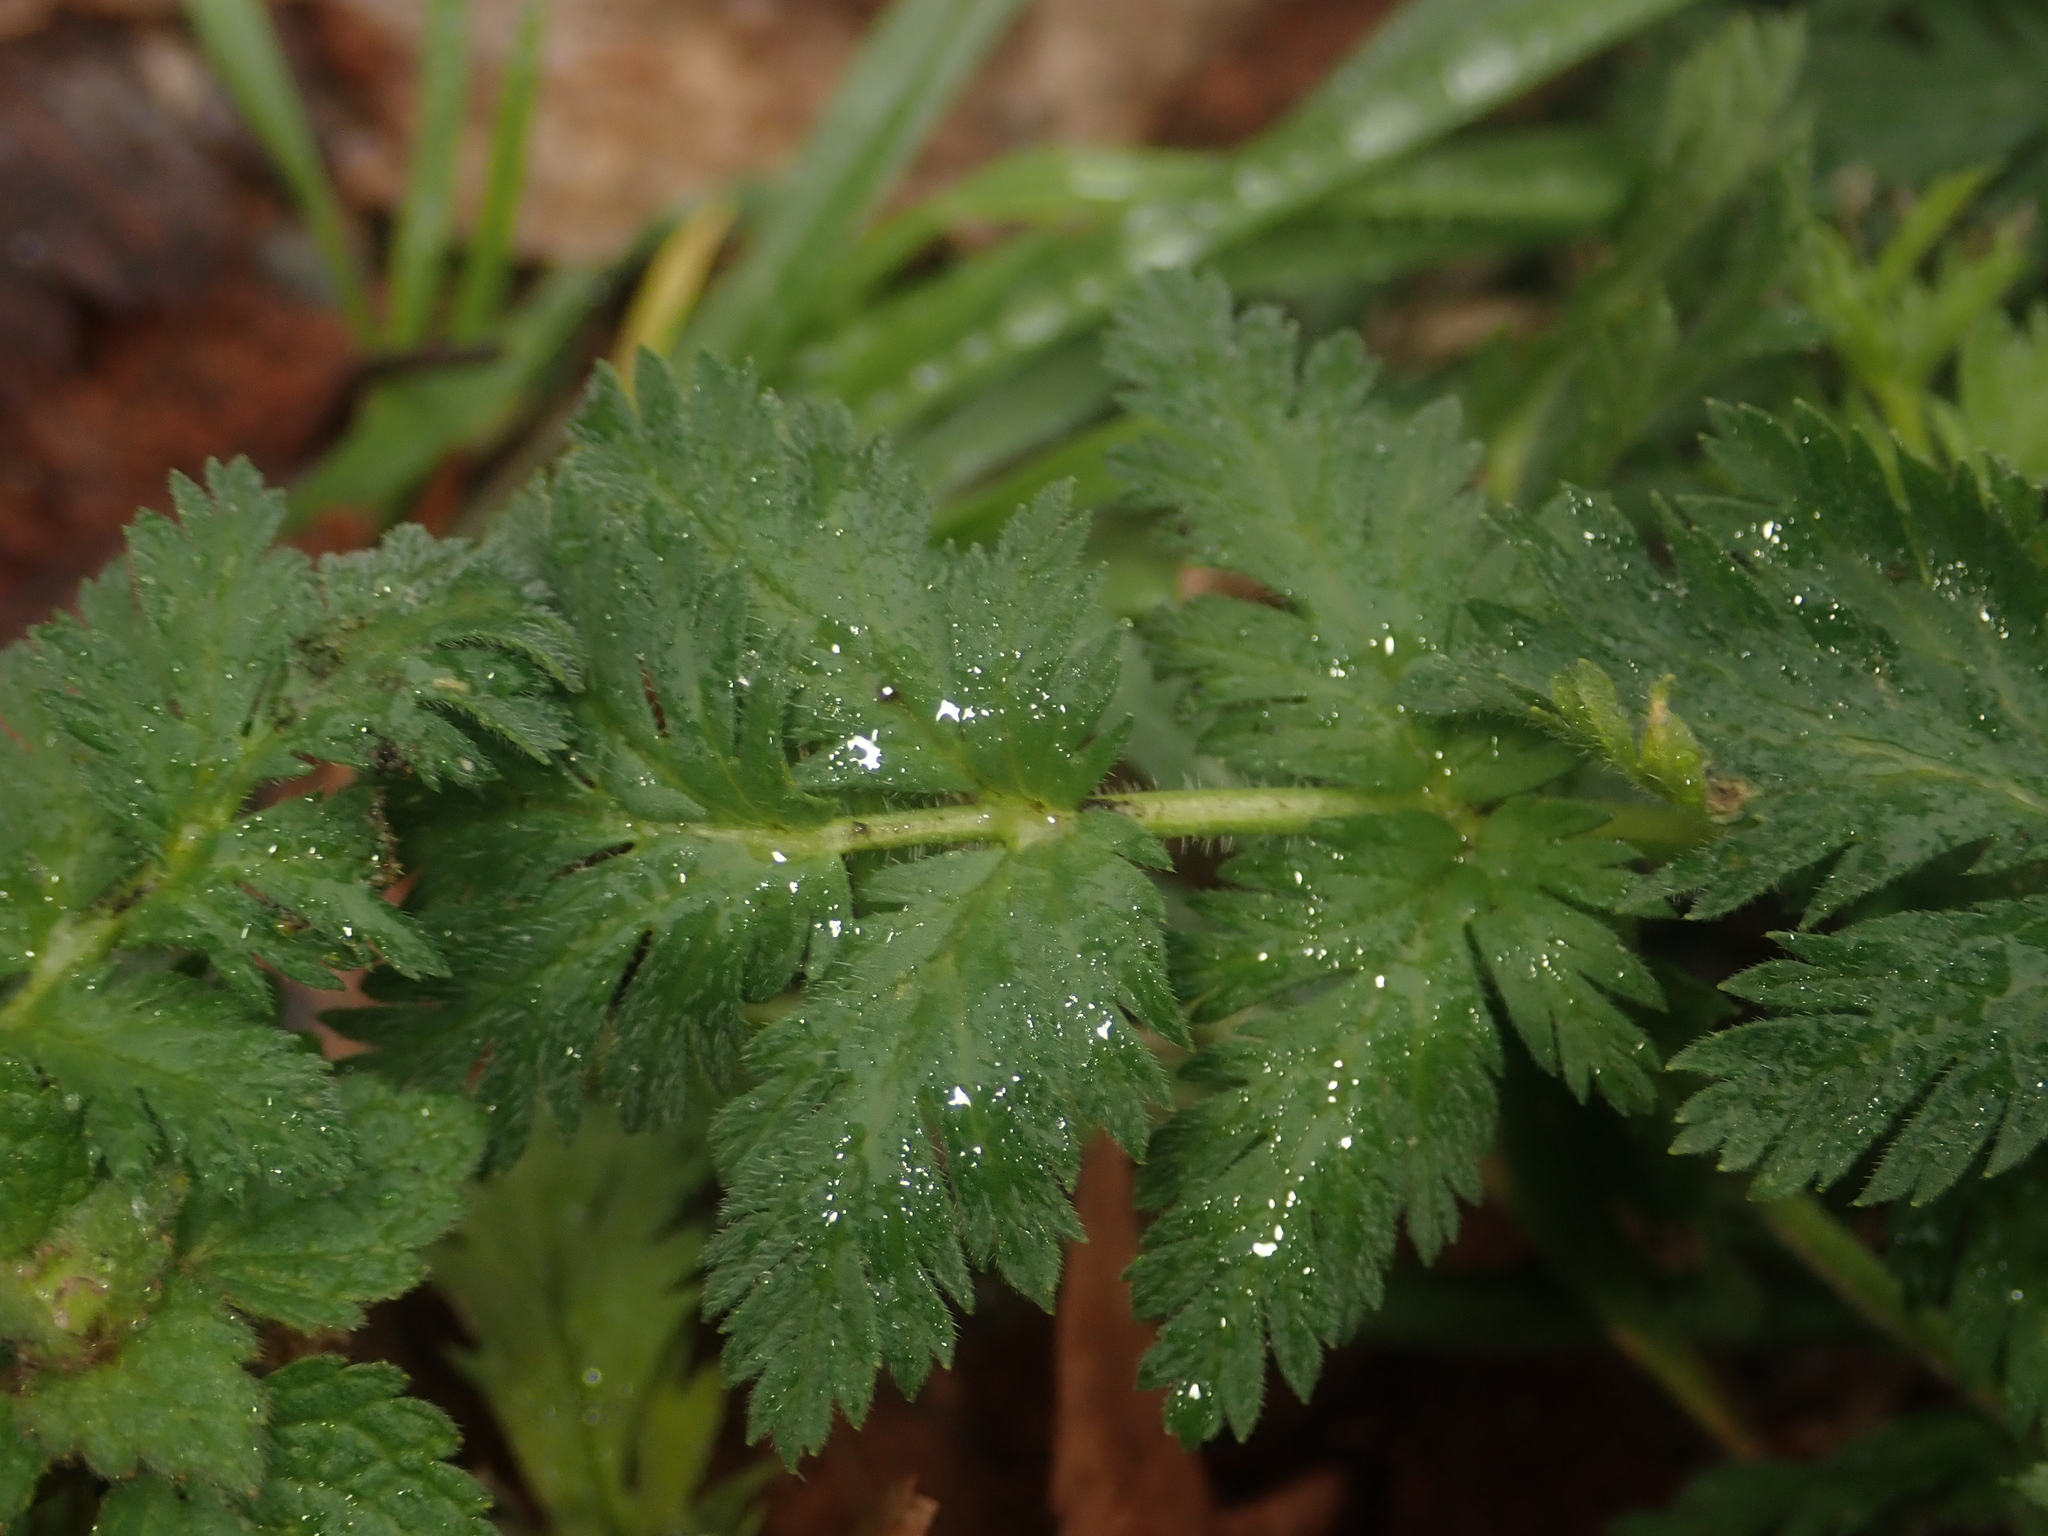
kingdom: Plantae
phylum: Tracheophyta
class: Magnoliopsida
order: Geraniales
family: Geraniaceae
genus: Erodium
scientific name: Erodium cicutarium
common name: Common stork's-bill
